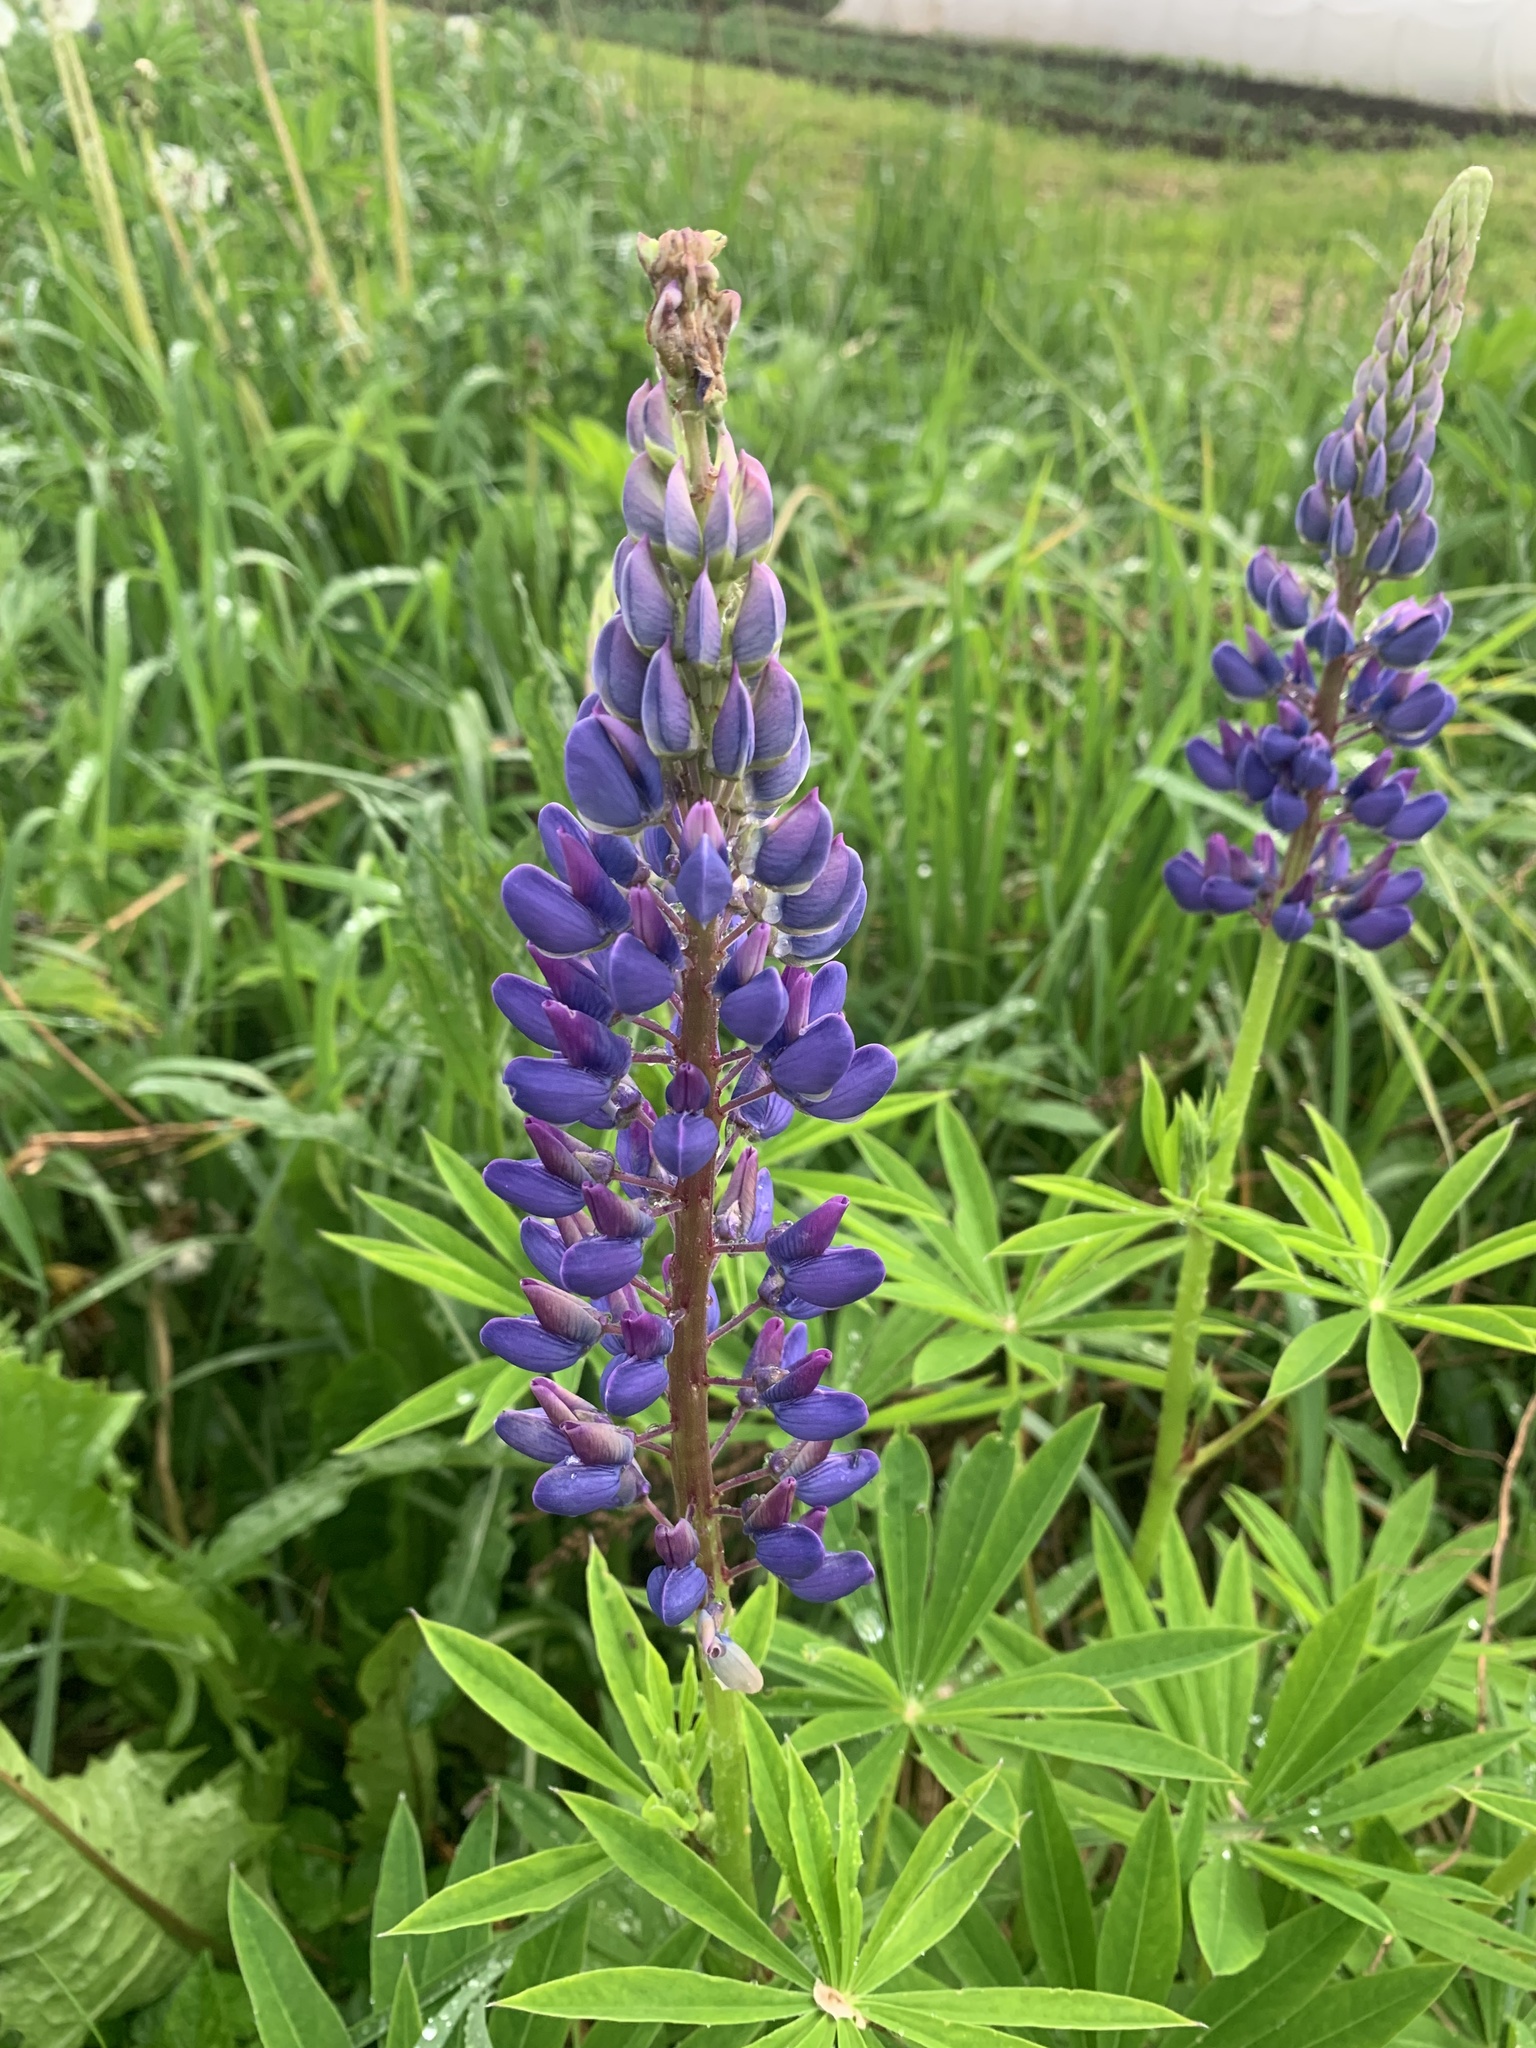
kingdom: Plantae
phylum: Tracheophyta
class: Magnoliopsida
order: Fabales
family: Fabaceae
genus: Lupinus
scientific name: Lupinus polyphyllus
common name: Garden lupin
